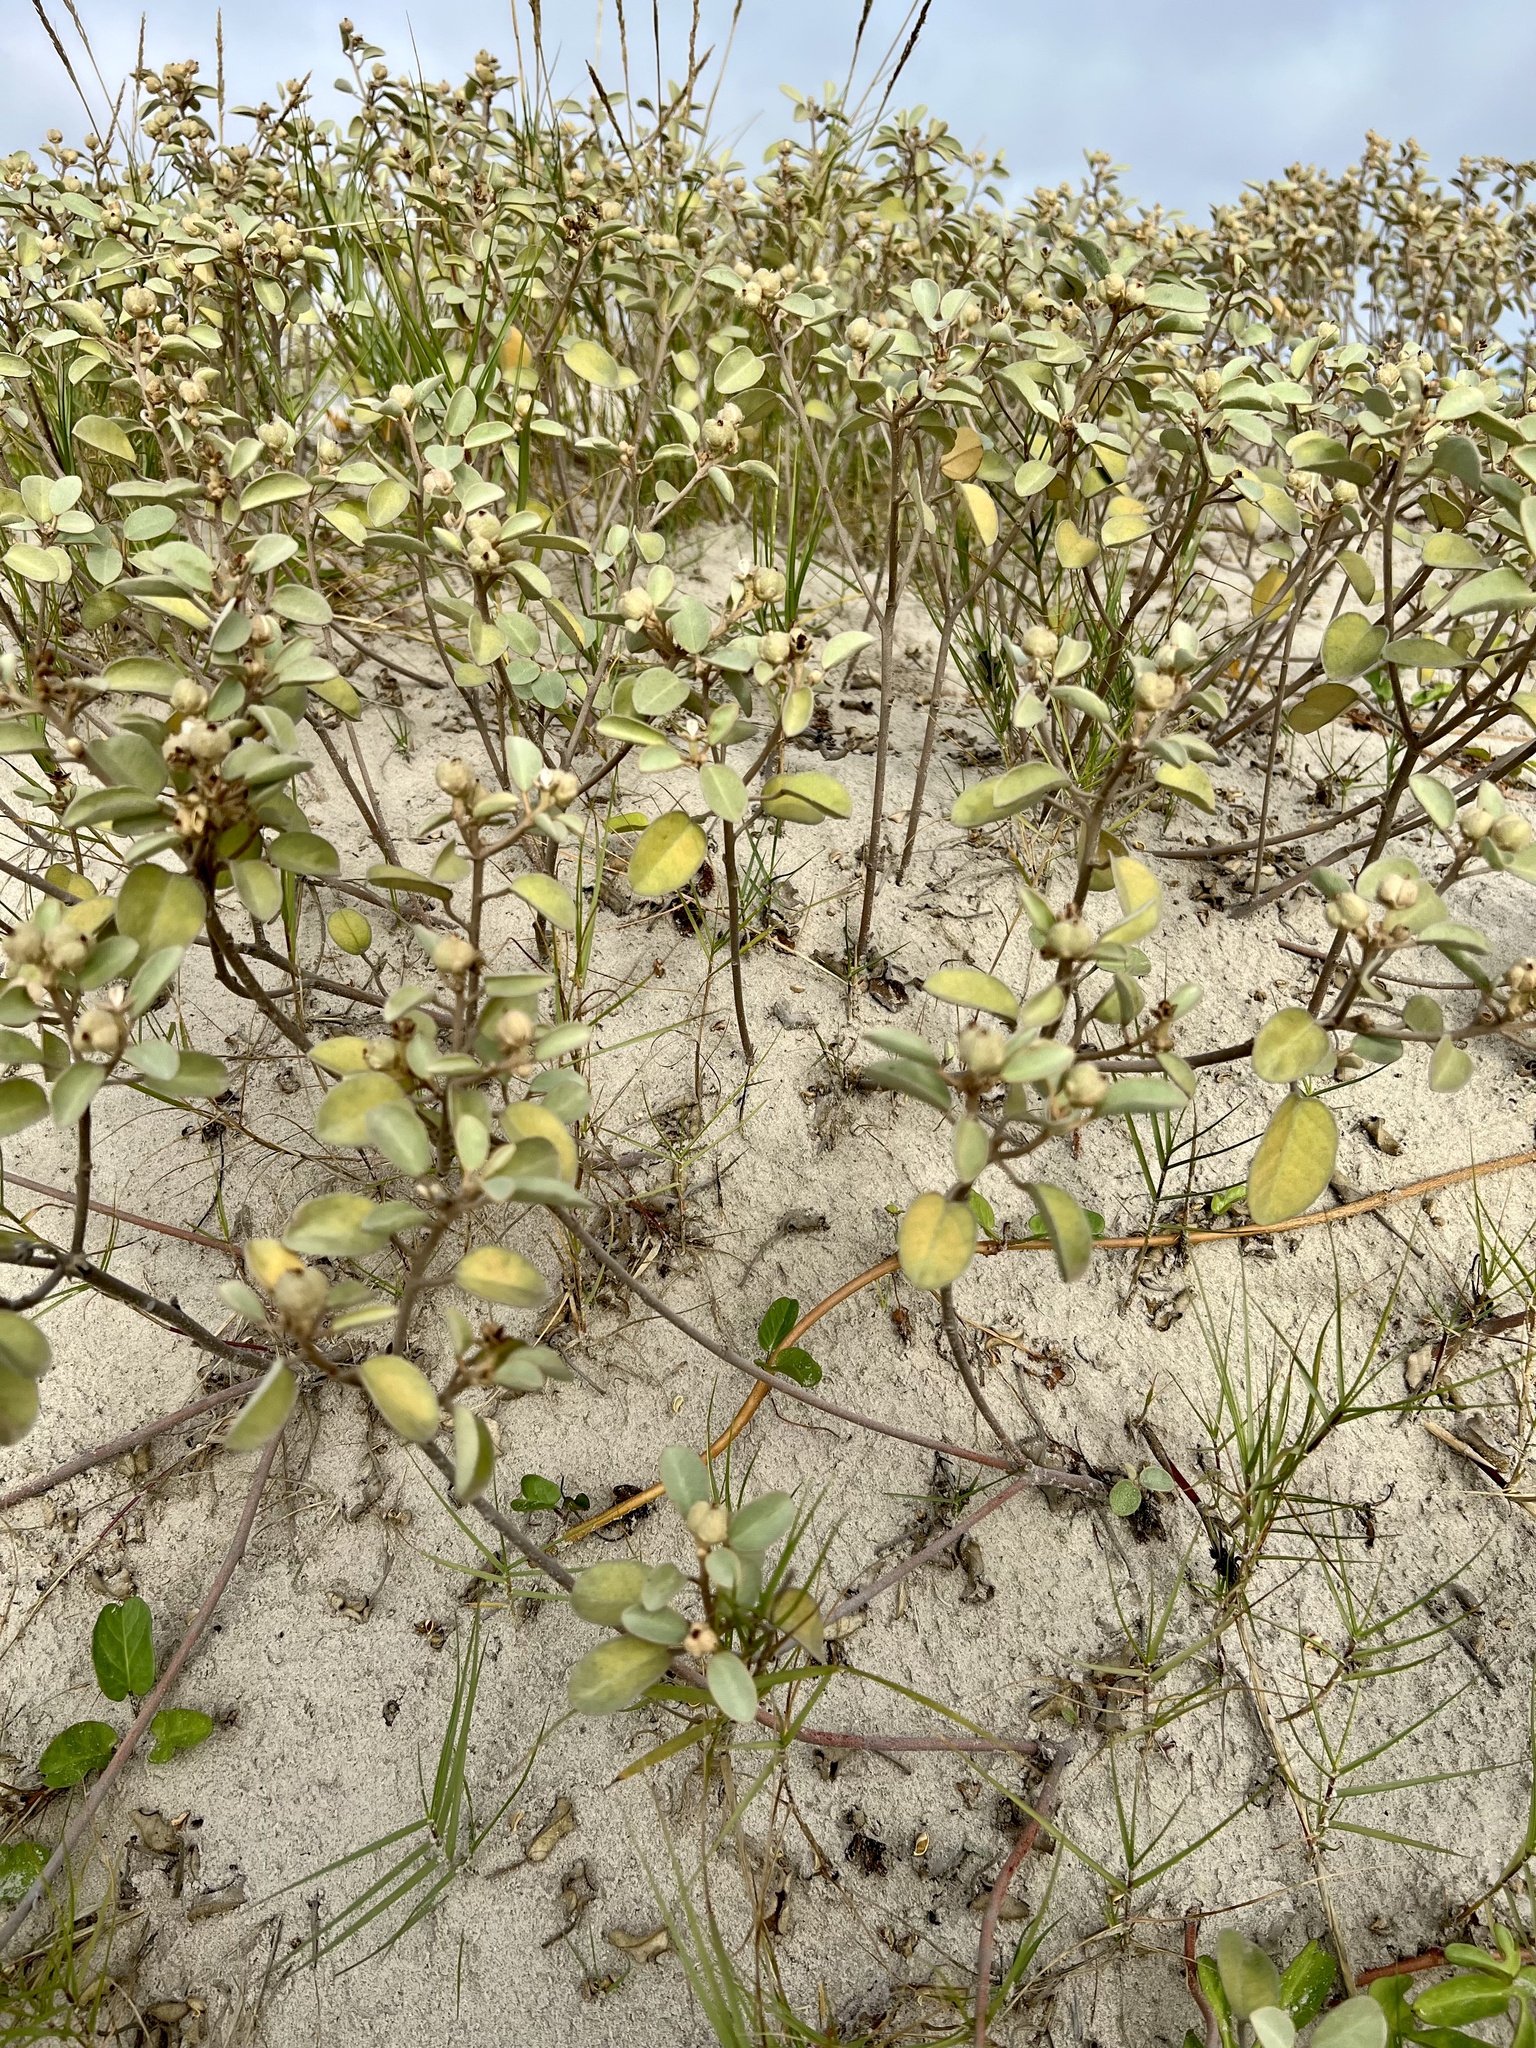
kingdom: Plantae
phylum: Tracheophyta
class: Magnoliopsida
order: Malpighiales
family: Euphorbiaceae
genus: Croton
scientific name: Croton punctatus
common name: Beach-tea
